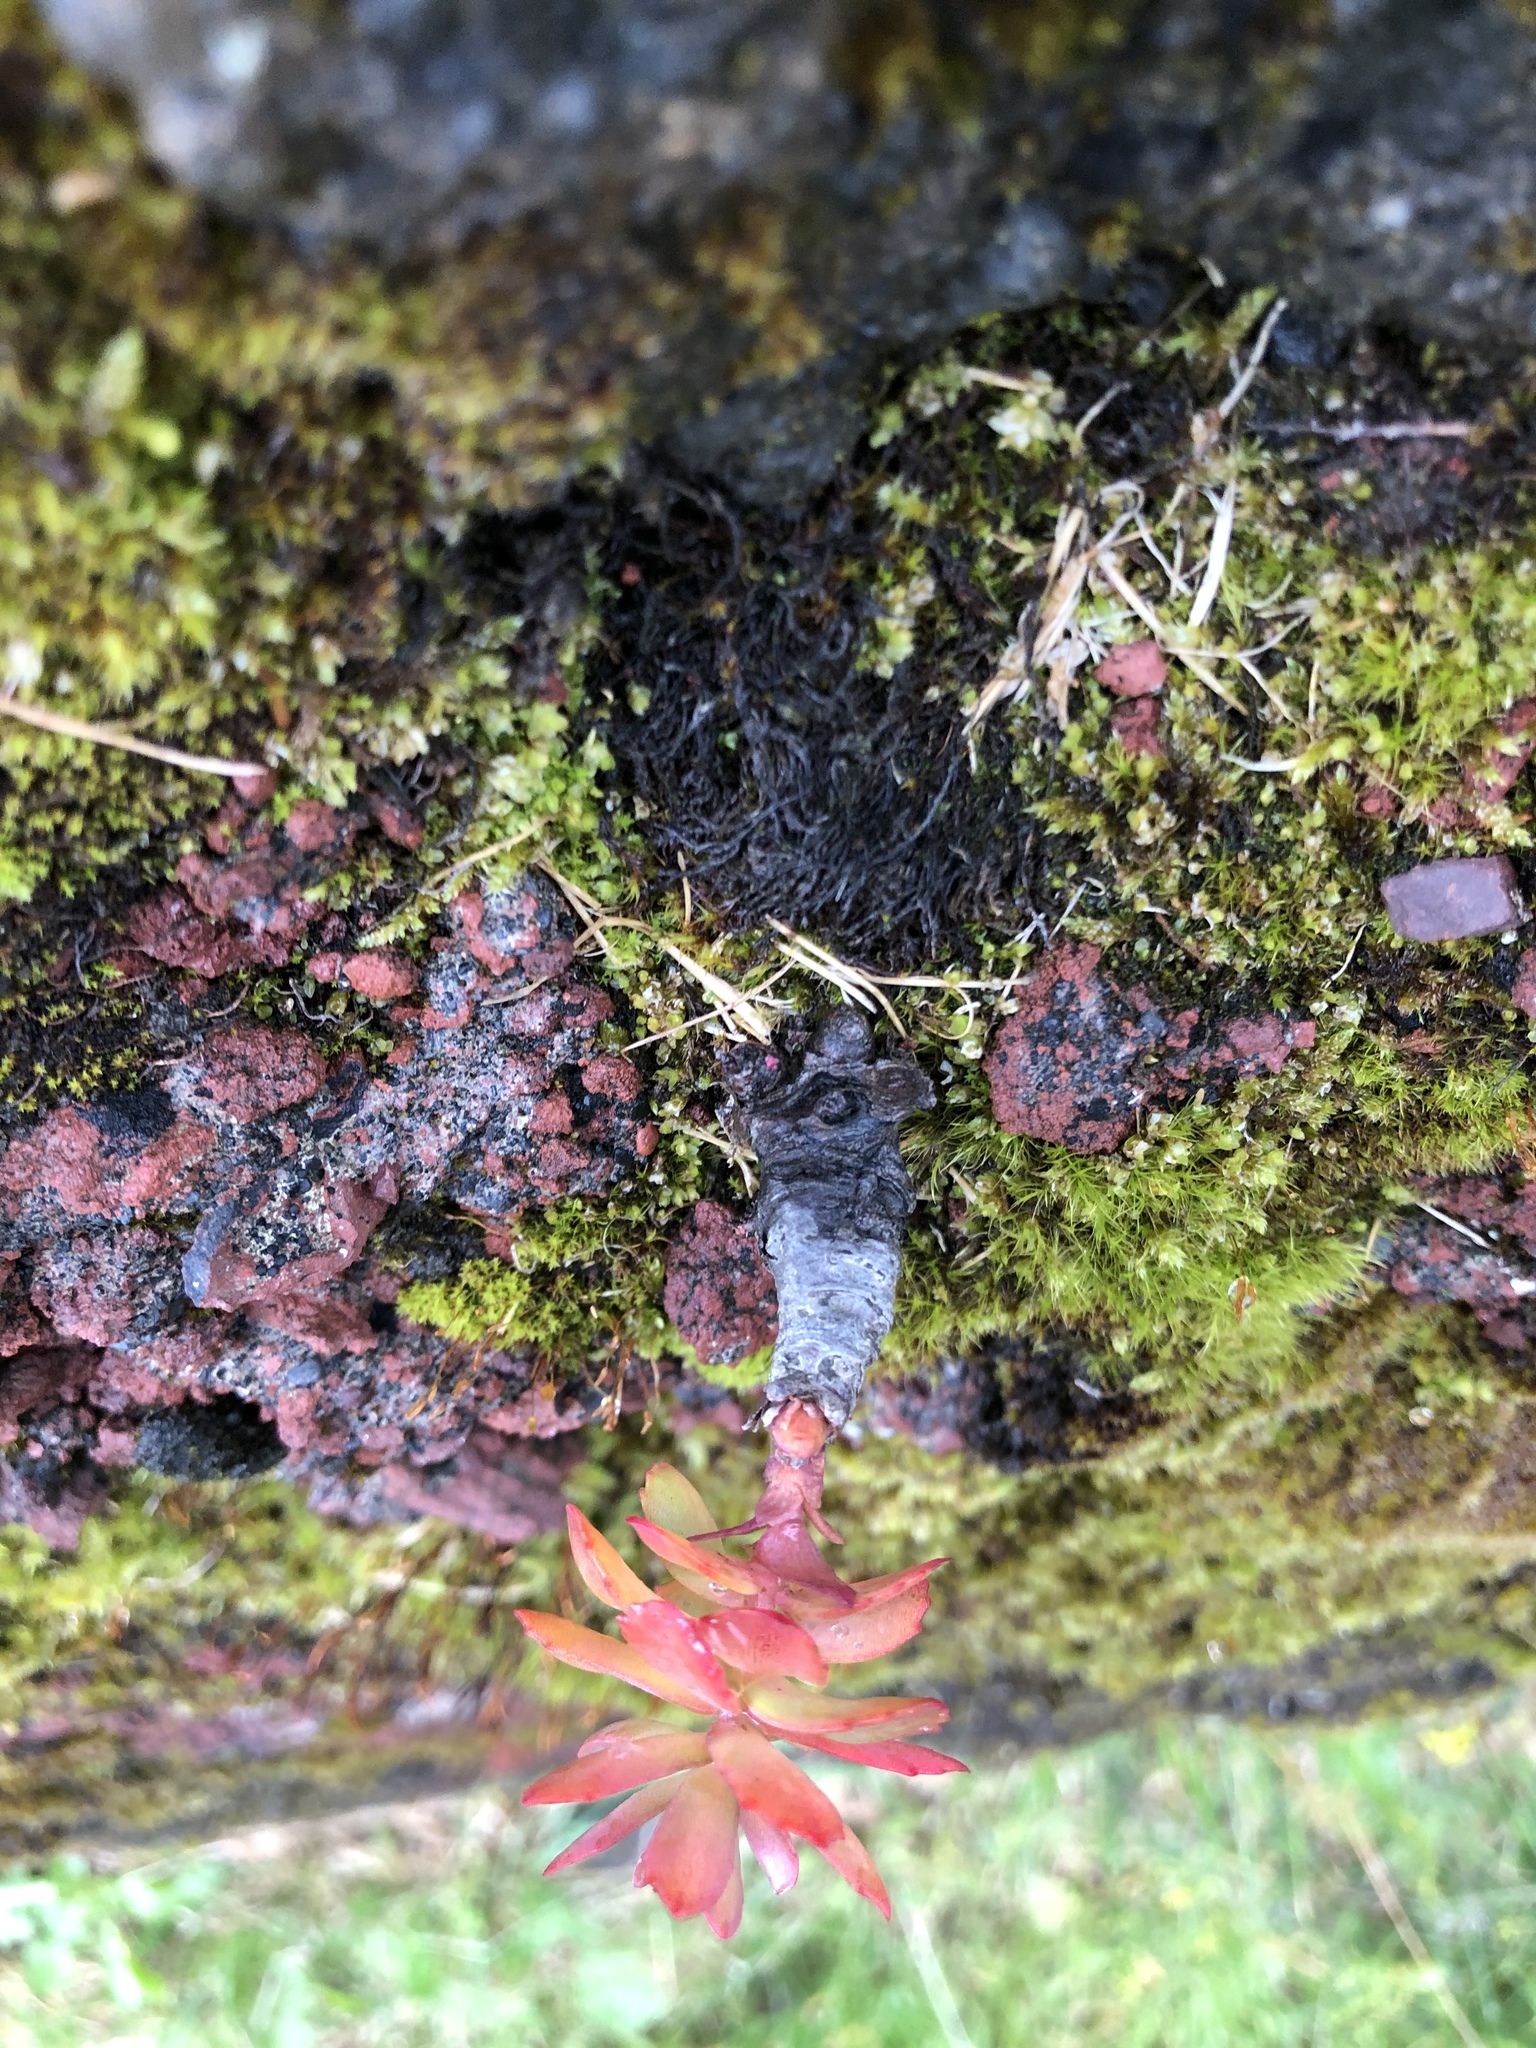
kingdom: Plantae
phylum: Tracheophyta
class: Magnoliopsida
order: Saxifragales
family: Crassulaceae
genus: Rhodiola
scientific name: Rhodiola rosea
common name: Roseroot
